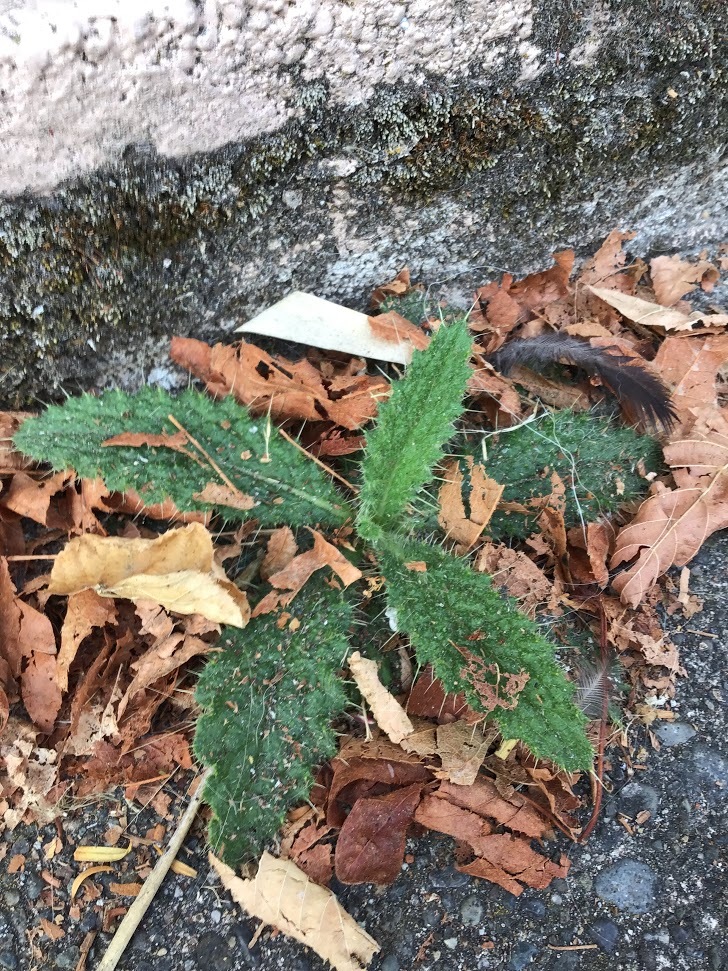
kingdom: Plantae
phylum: Tracheophyta
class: Magnoliopsida
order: Asterales
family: Asteraceae
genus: Cirsium
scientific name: Cirsium vulgare
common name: Bull thistle
